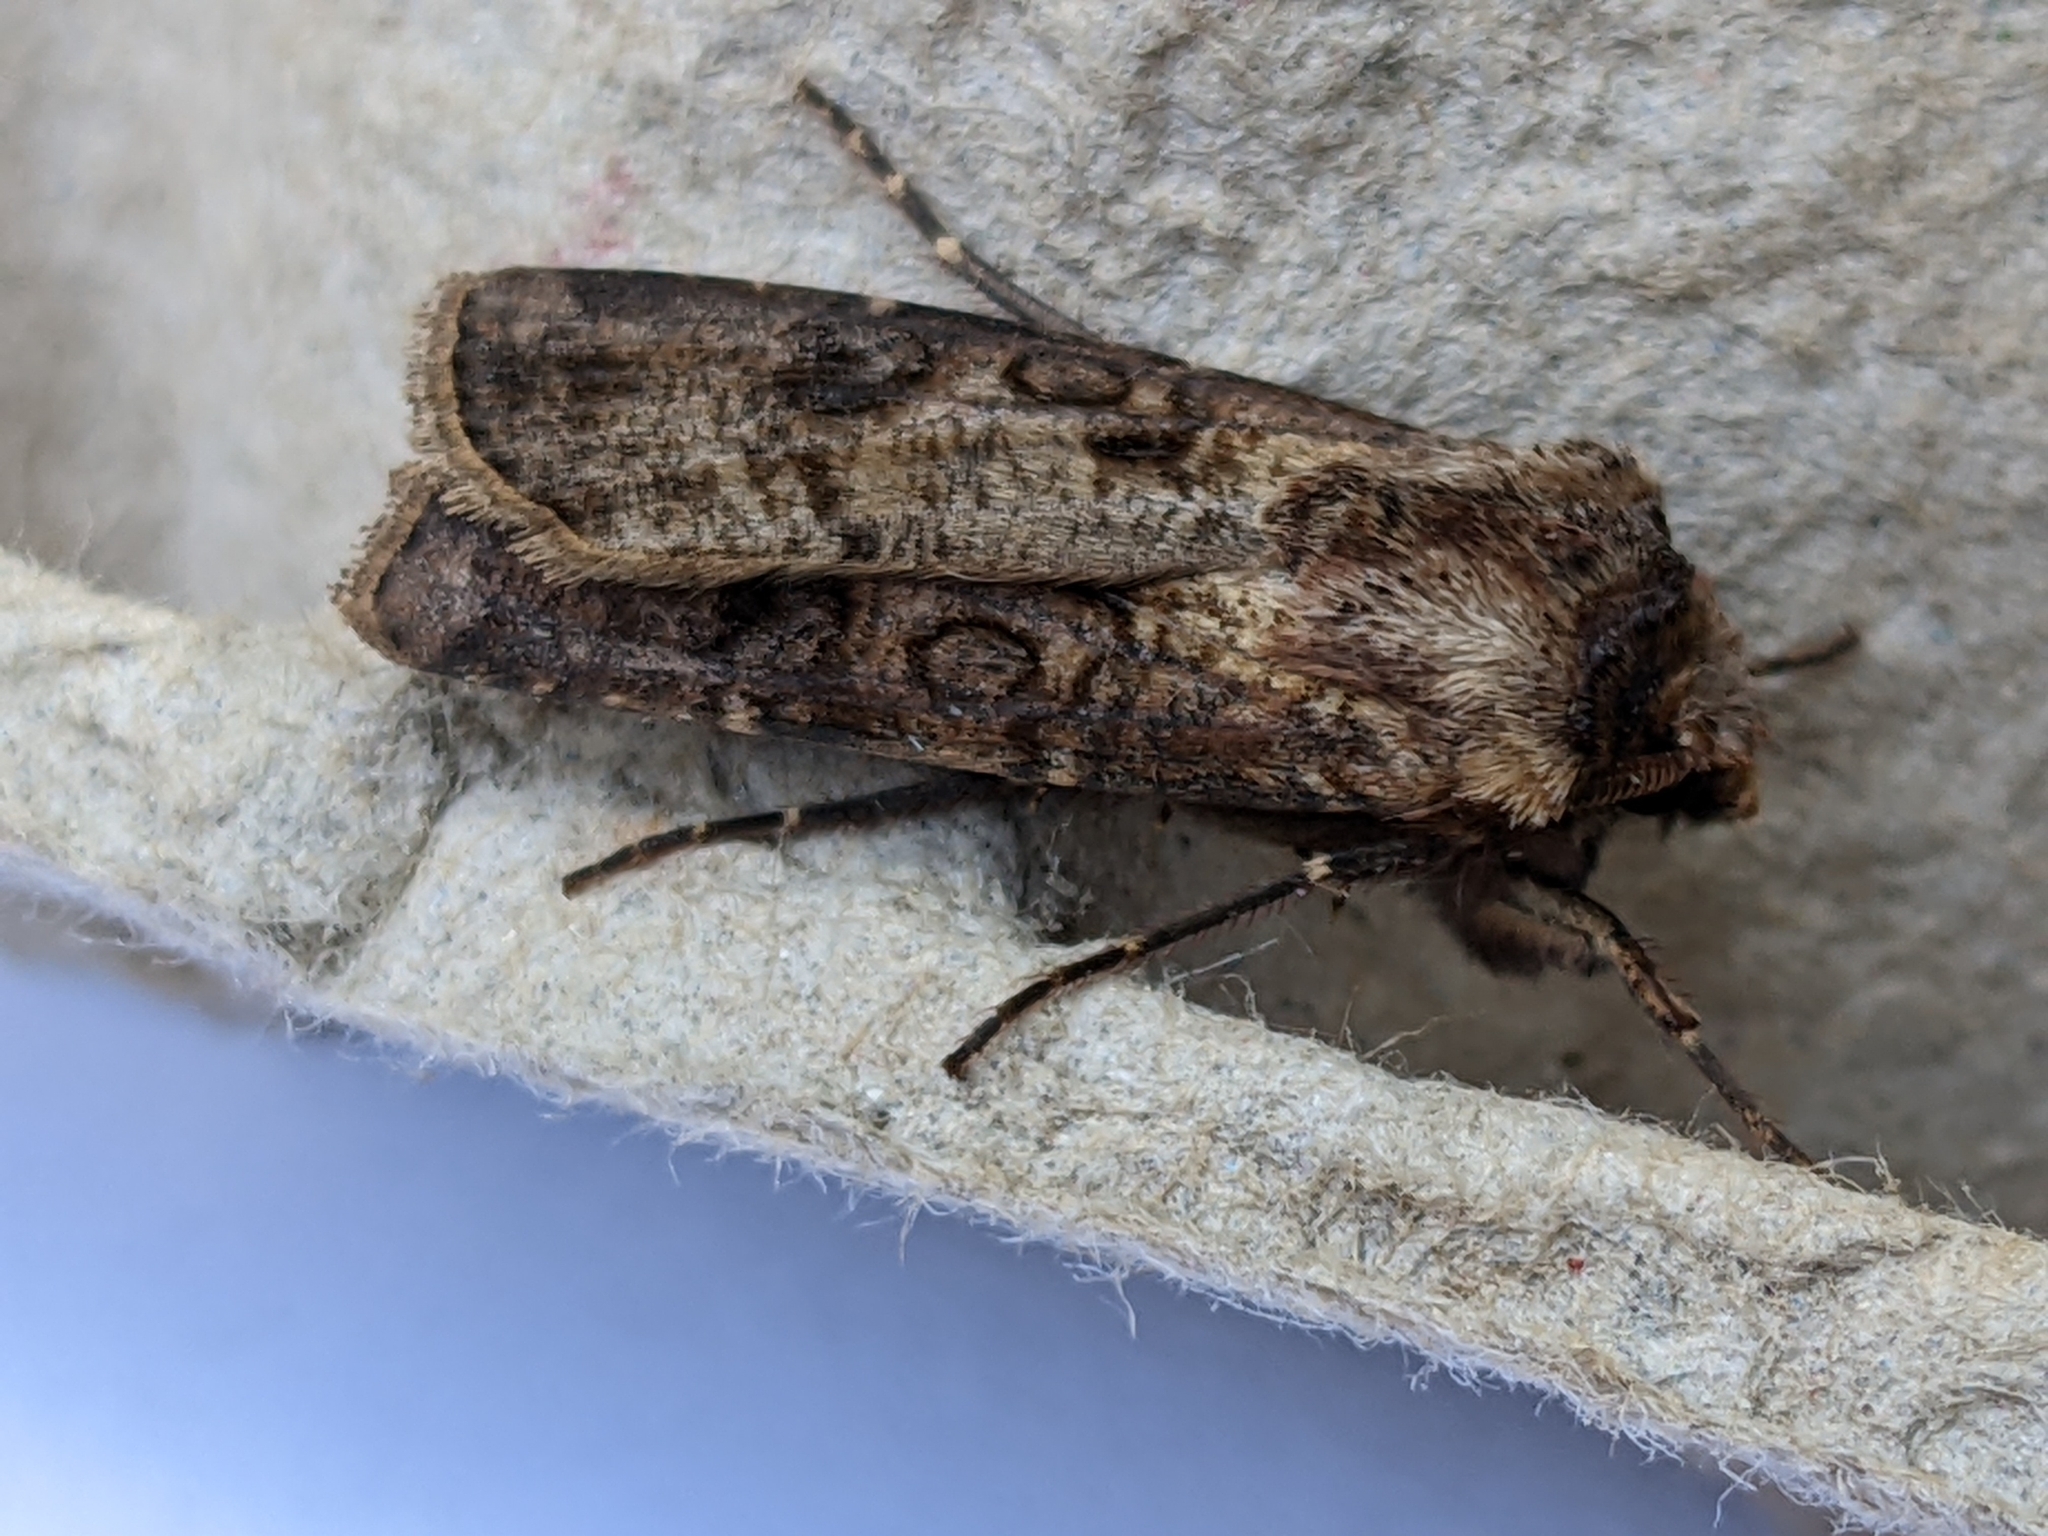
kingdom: Animalia
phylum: Arthropoda
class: Insecta
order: Lepidoptera
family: Noctuidae
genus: Agrotis
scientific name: Agrotis clavis
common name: Heart and club
